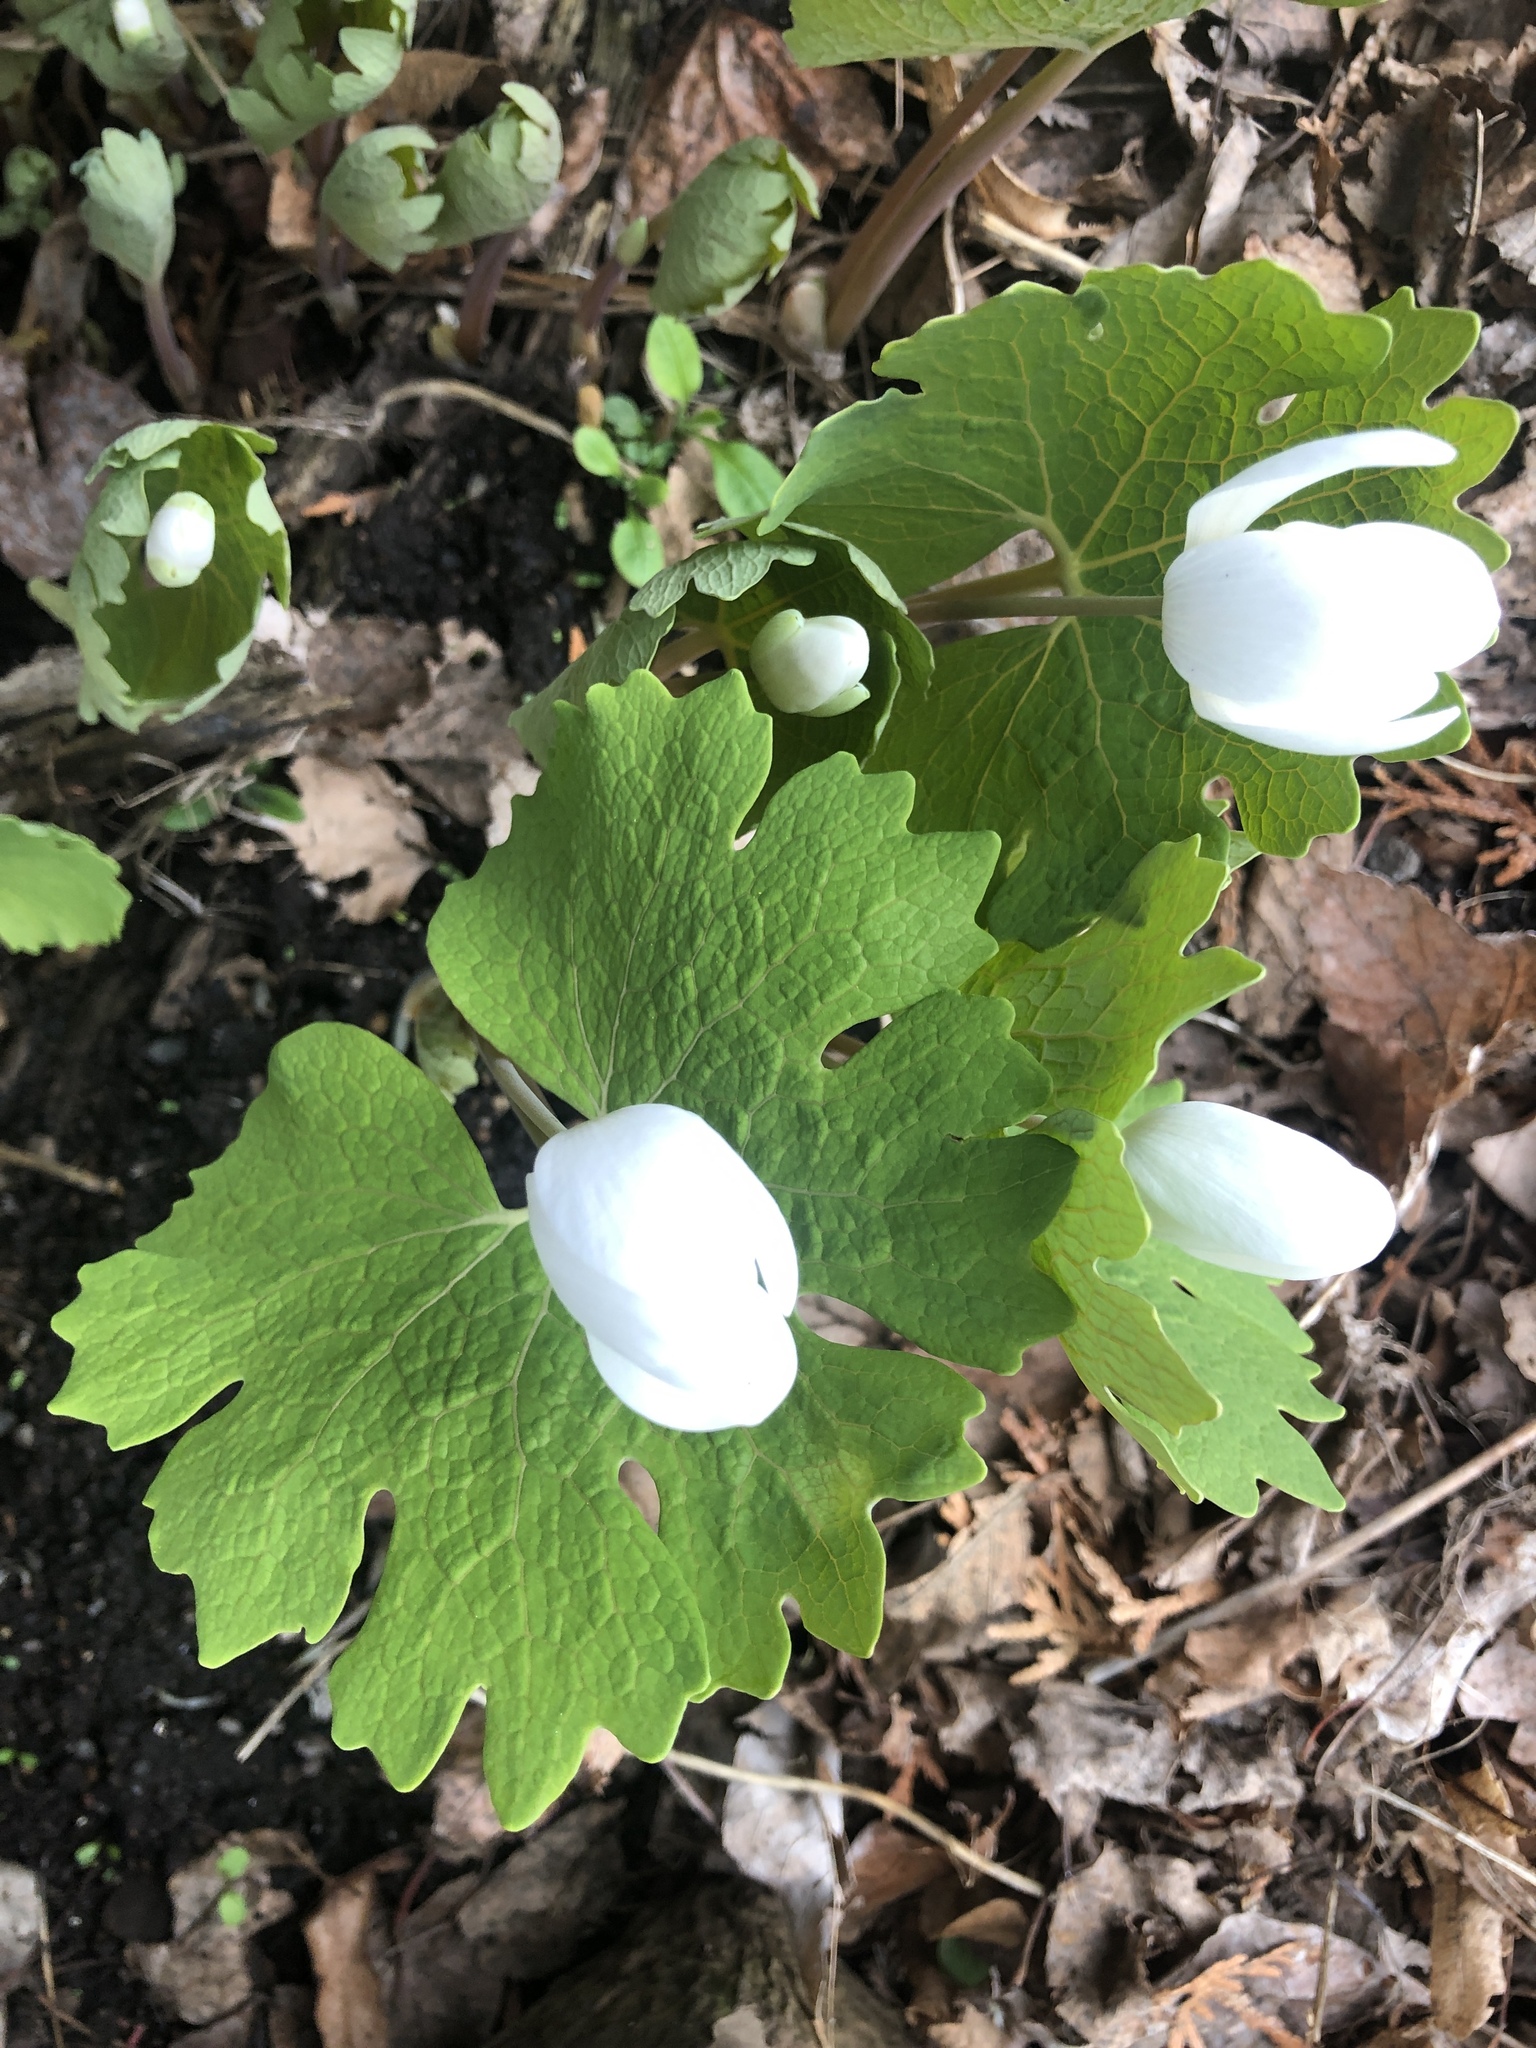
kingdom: Plantae
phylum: Tracheophyta
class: Magnoliopsida
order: Ranunculales
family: Papaveraceae
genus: Sanguinaria
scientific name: Sanguinaria canadensis
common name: Bloodroot
